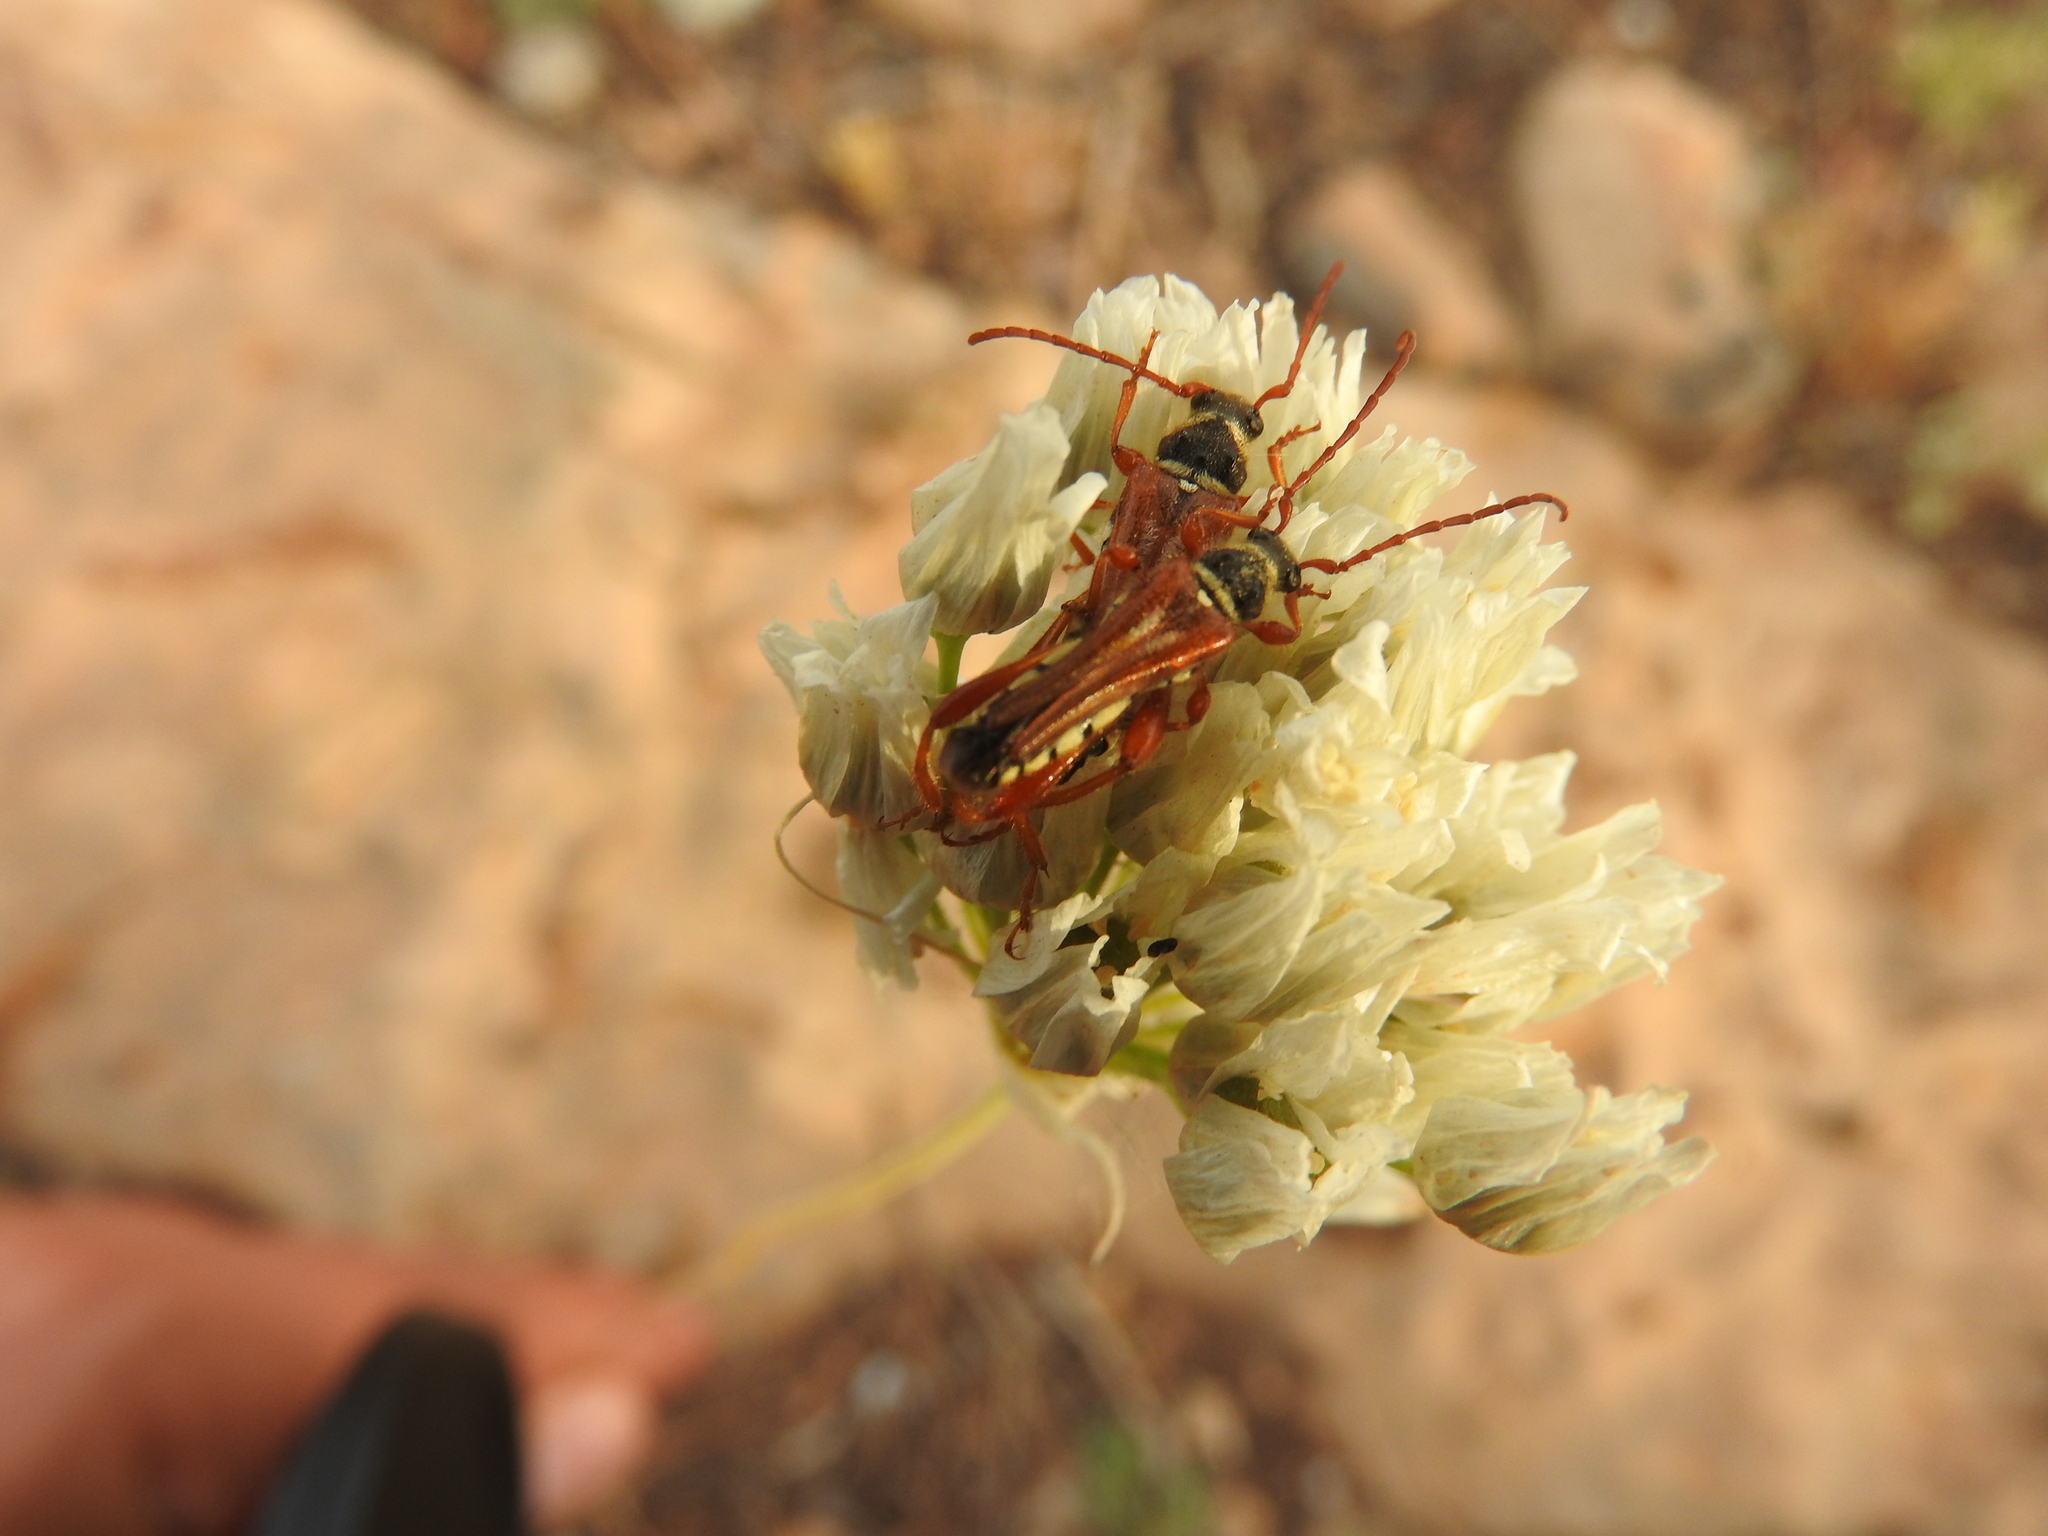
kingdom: Animalia
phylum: Arthropoda
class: Insecta
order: Coleoptera
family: Cerambycidae
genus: Stenopterus
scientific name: Stenopterus mauritanicus
